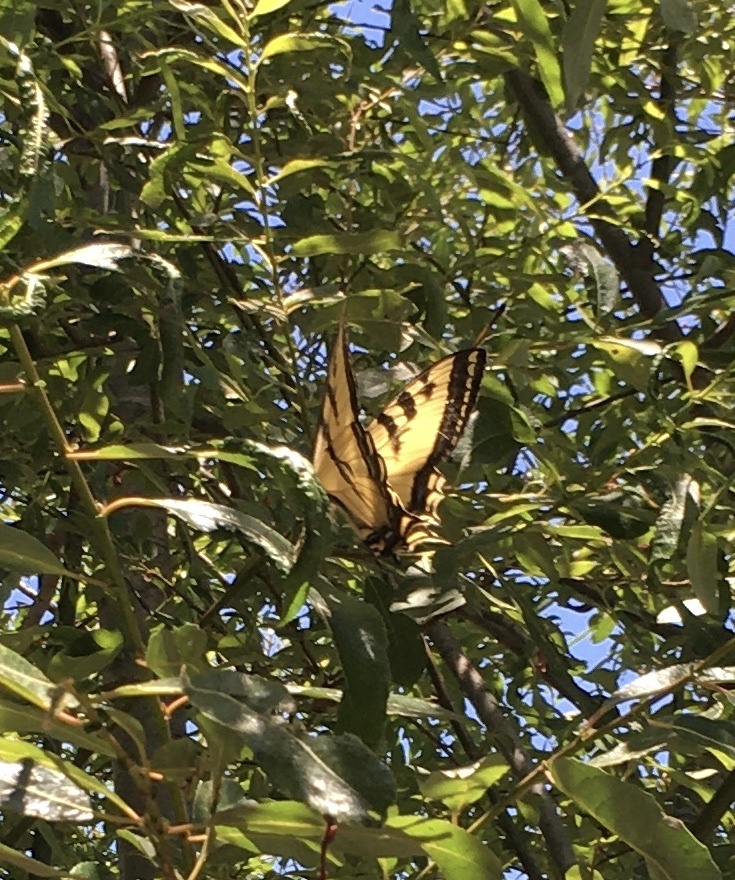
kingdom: Animalia
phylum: Arthropoda
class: Insecta
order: Lepidoptera
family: Papilionidae
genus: Papilio
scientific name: Papilio rutulus
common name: Western tiger swallowtail
